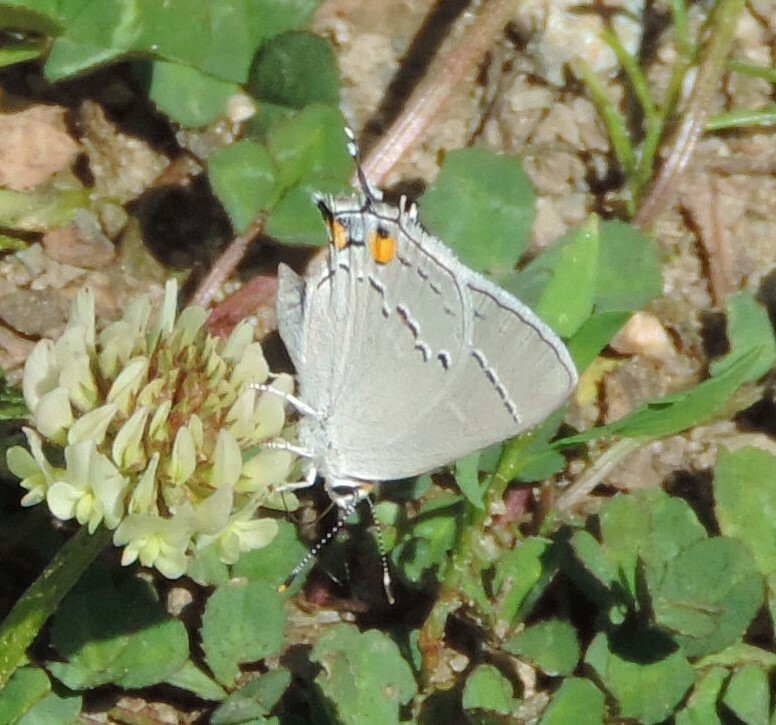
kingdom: Animalia
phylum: Arthropoda
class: Insecta
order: Lepidoptera
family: Lycaenidae
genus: Strymon
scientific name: Strymon melinus
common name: Gray hairstreak
